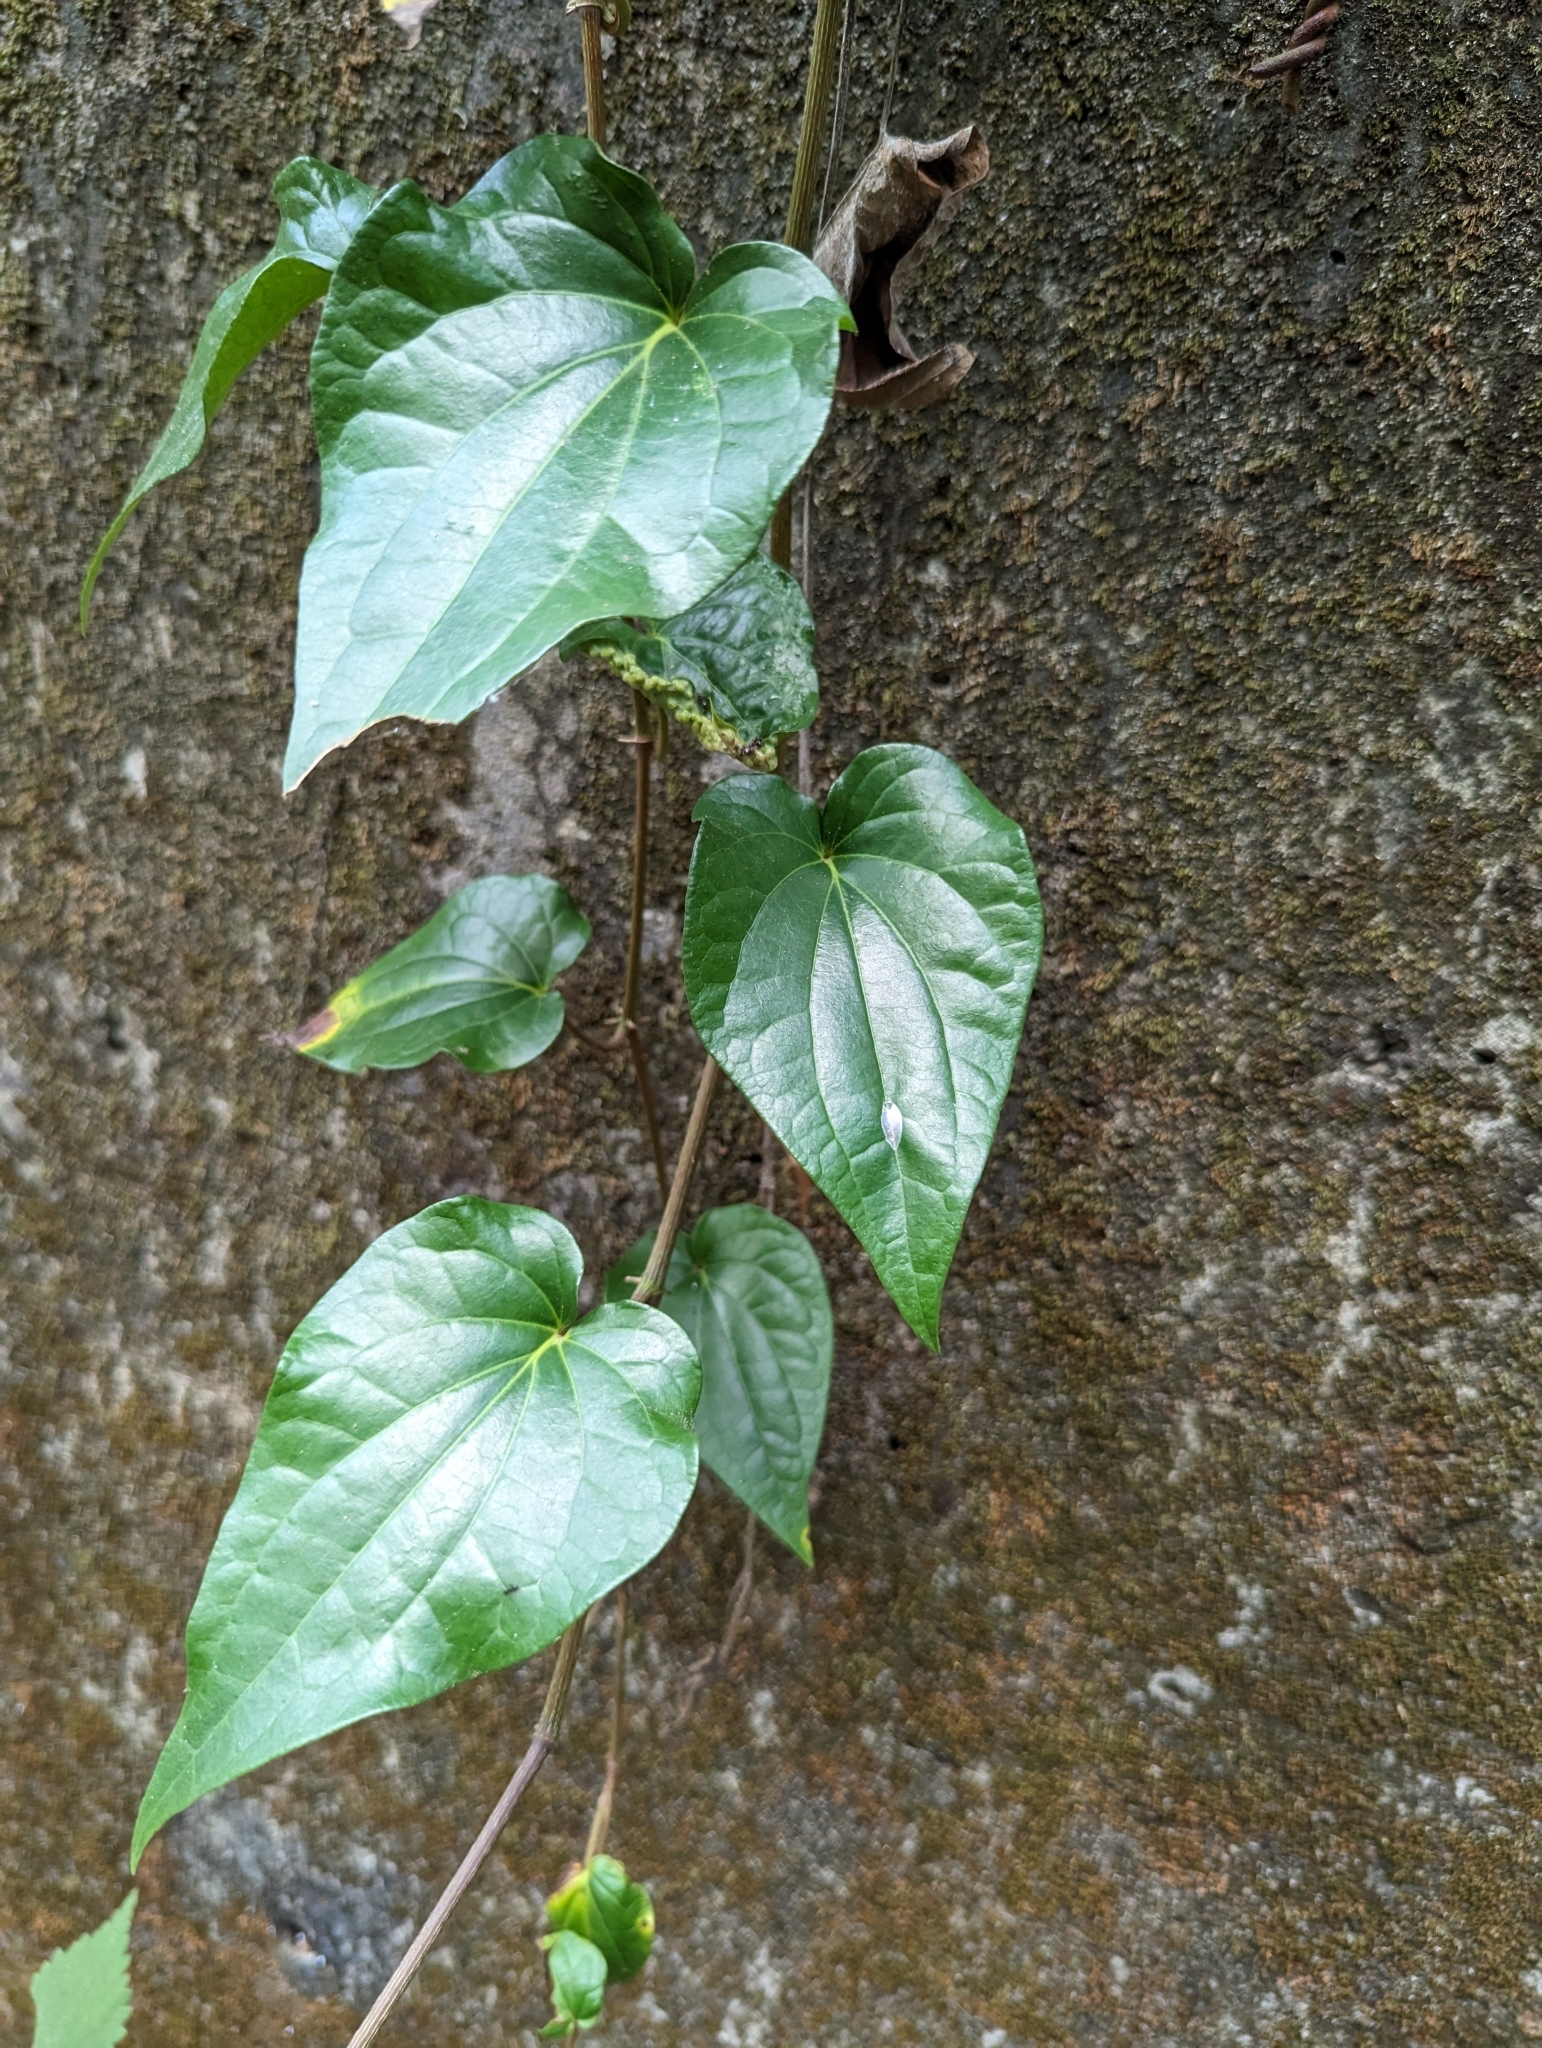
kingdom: Plantae
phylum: Tracheophyta
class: Magnoliopsida
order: Piperales
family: Piperaceae
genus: Piper
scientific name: Piper betle
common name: Betel pepper
